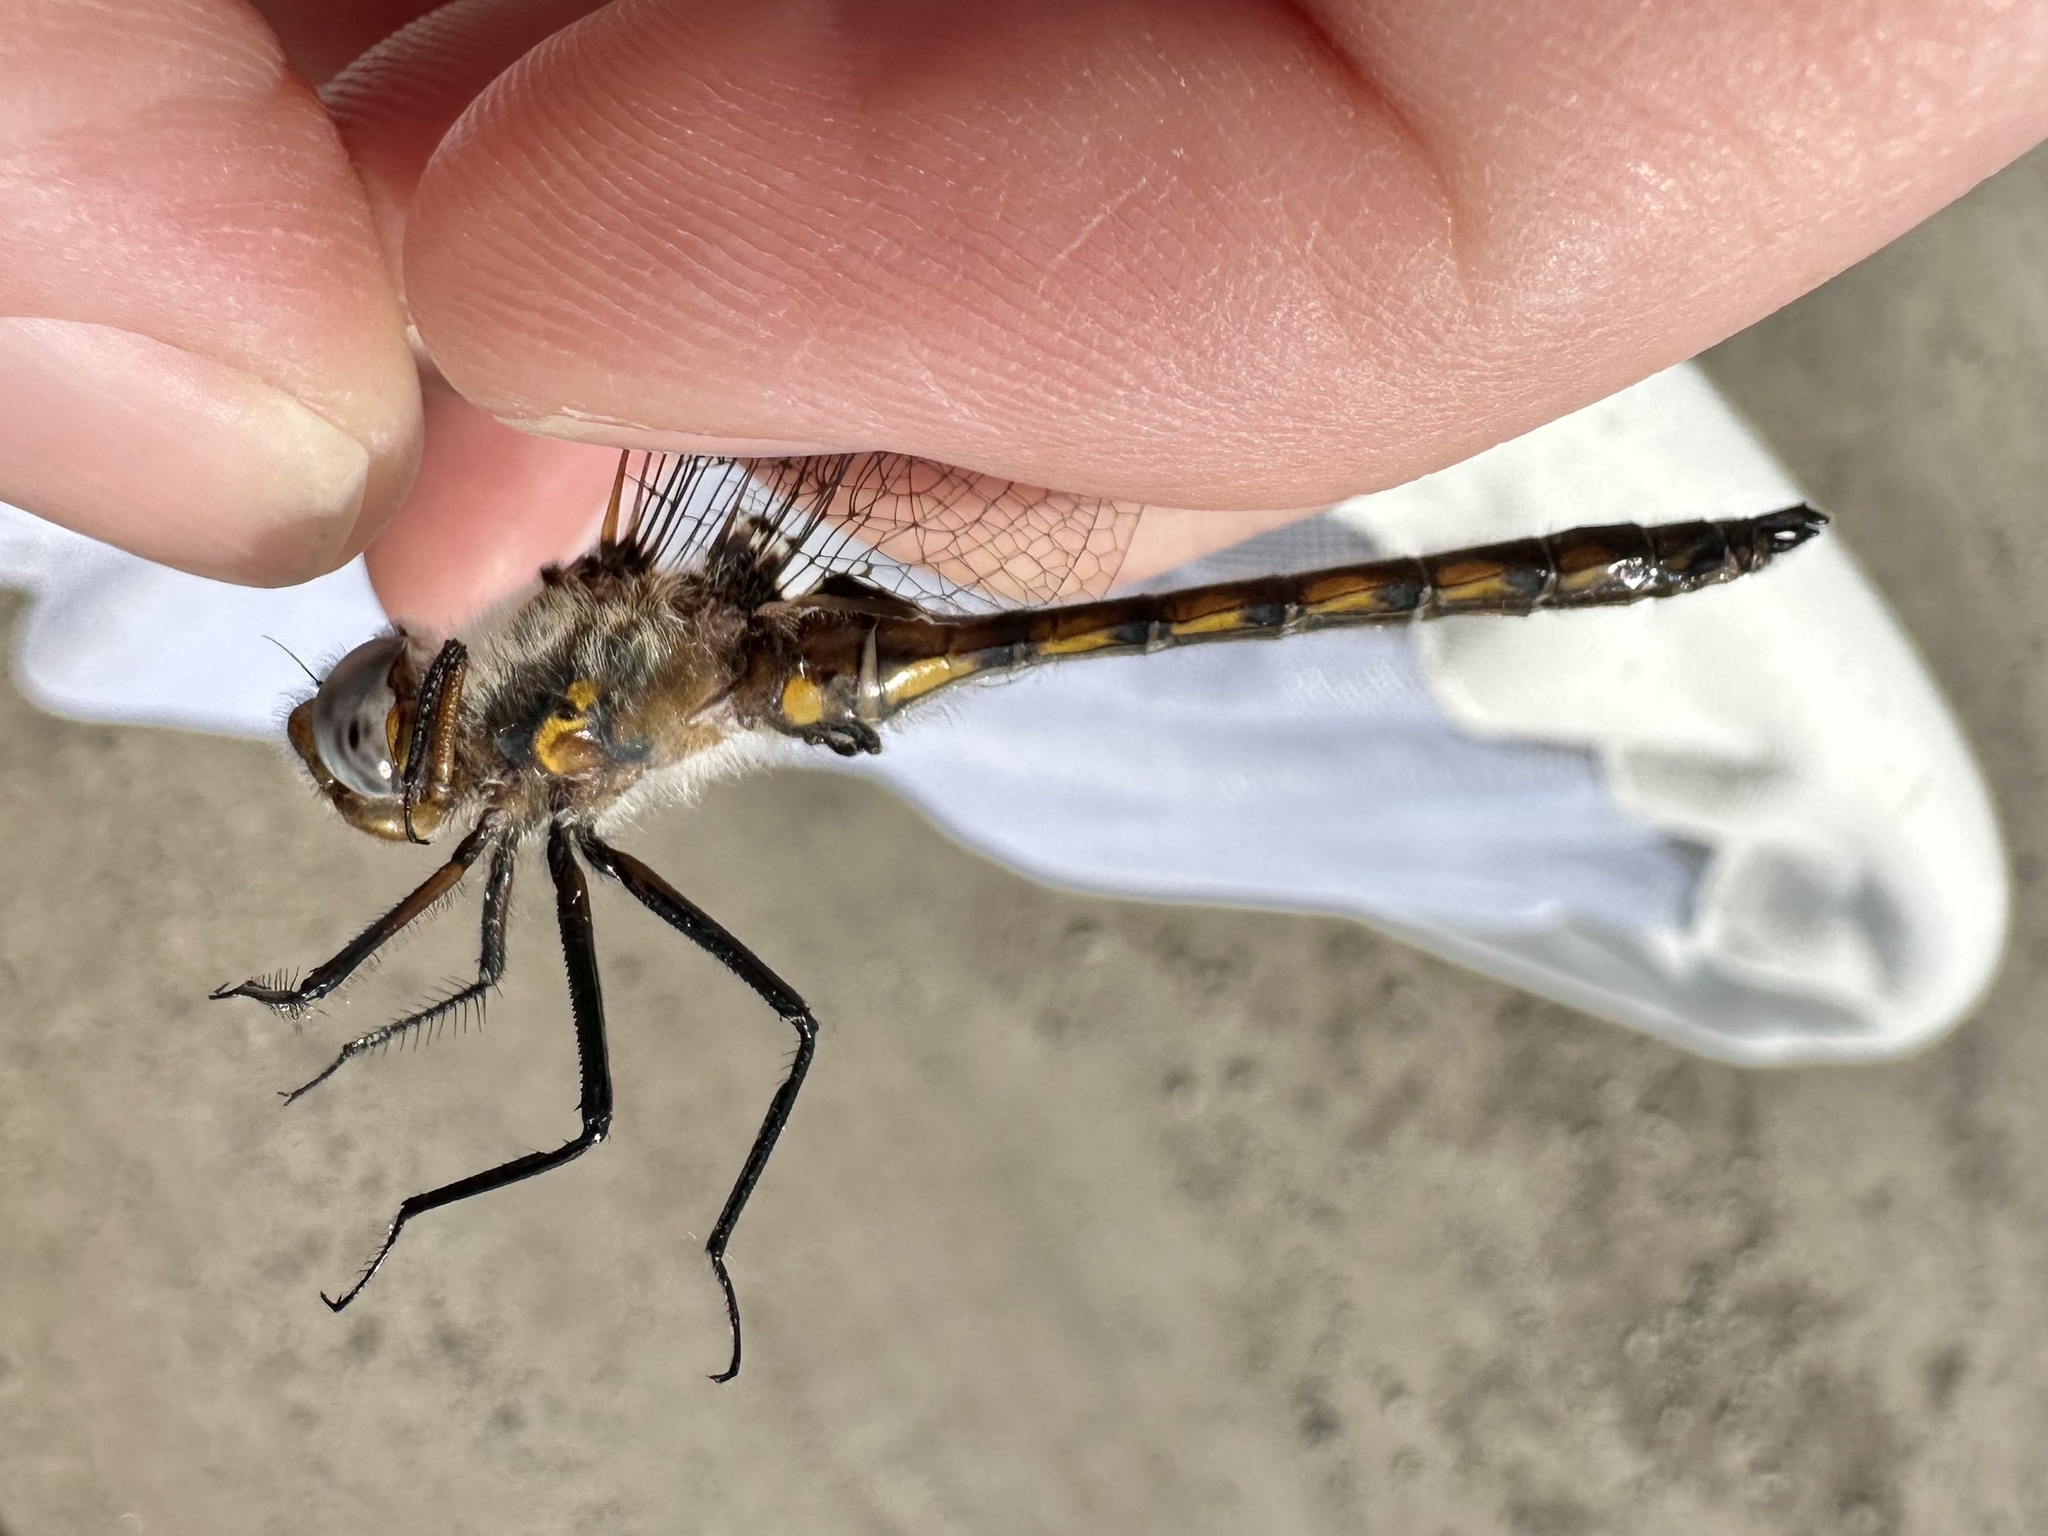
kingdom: Animalia
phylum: Arthropoda
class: Insecta
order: Odonata
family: Corduliidae
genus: Epitheca
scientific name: Epitheca canis
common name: Beaverpond baskettail
